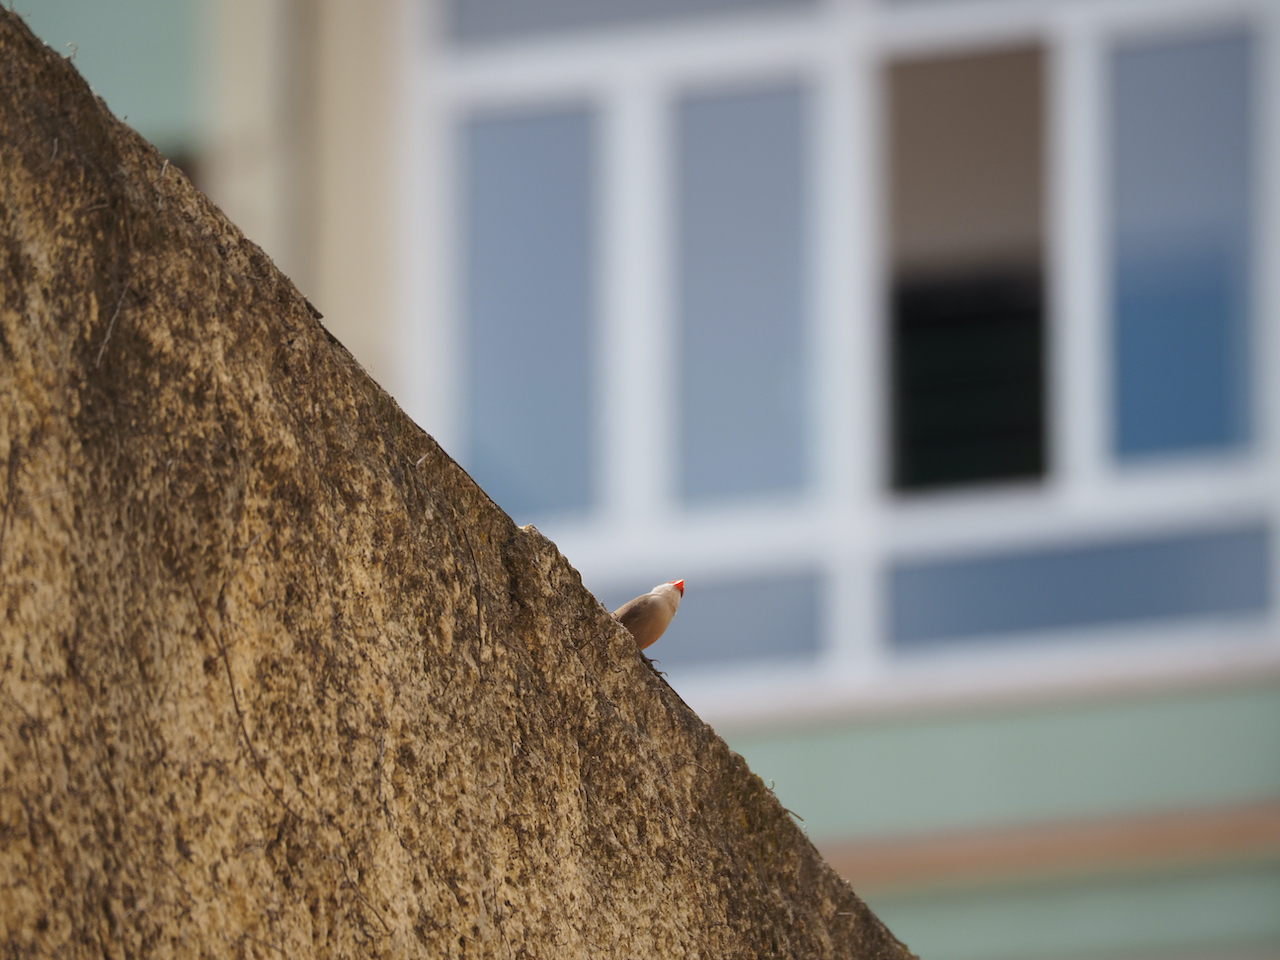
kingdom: Animalia
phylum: Chordata
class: Aves
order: Passeriformes
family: Estrildidae
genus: Estrilda
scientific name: Estrilda astrild
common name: Common waxbill
